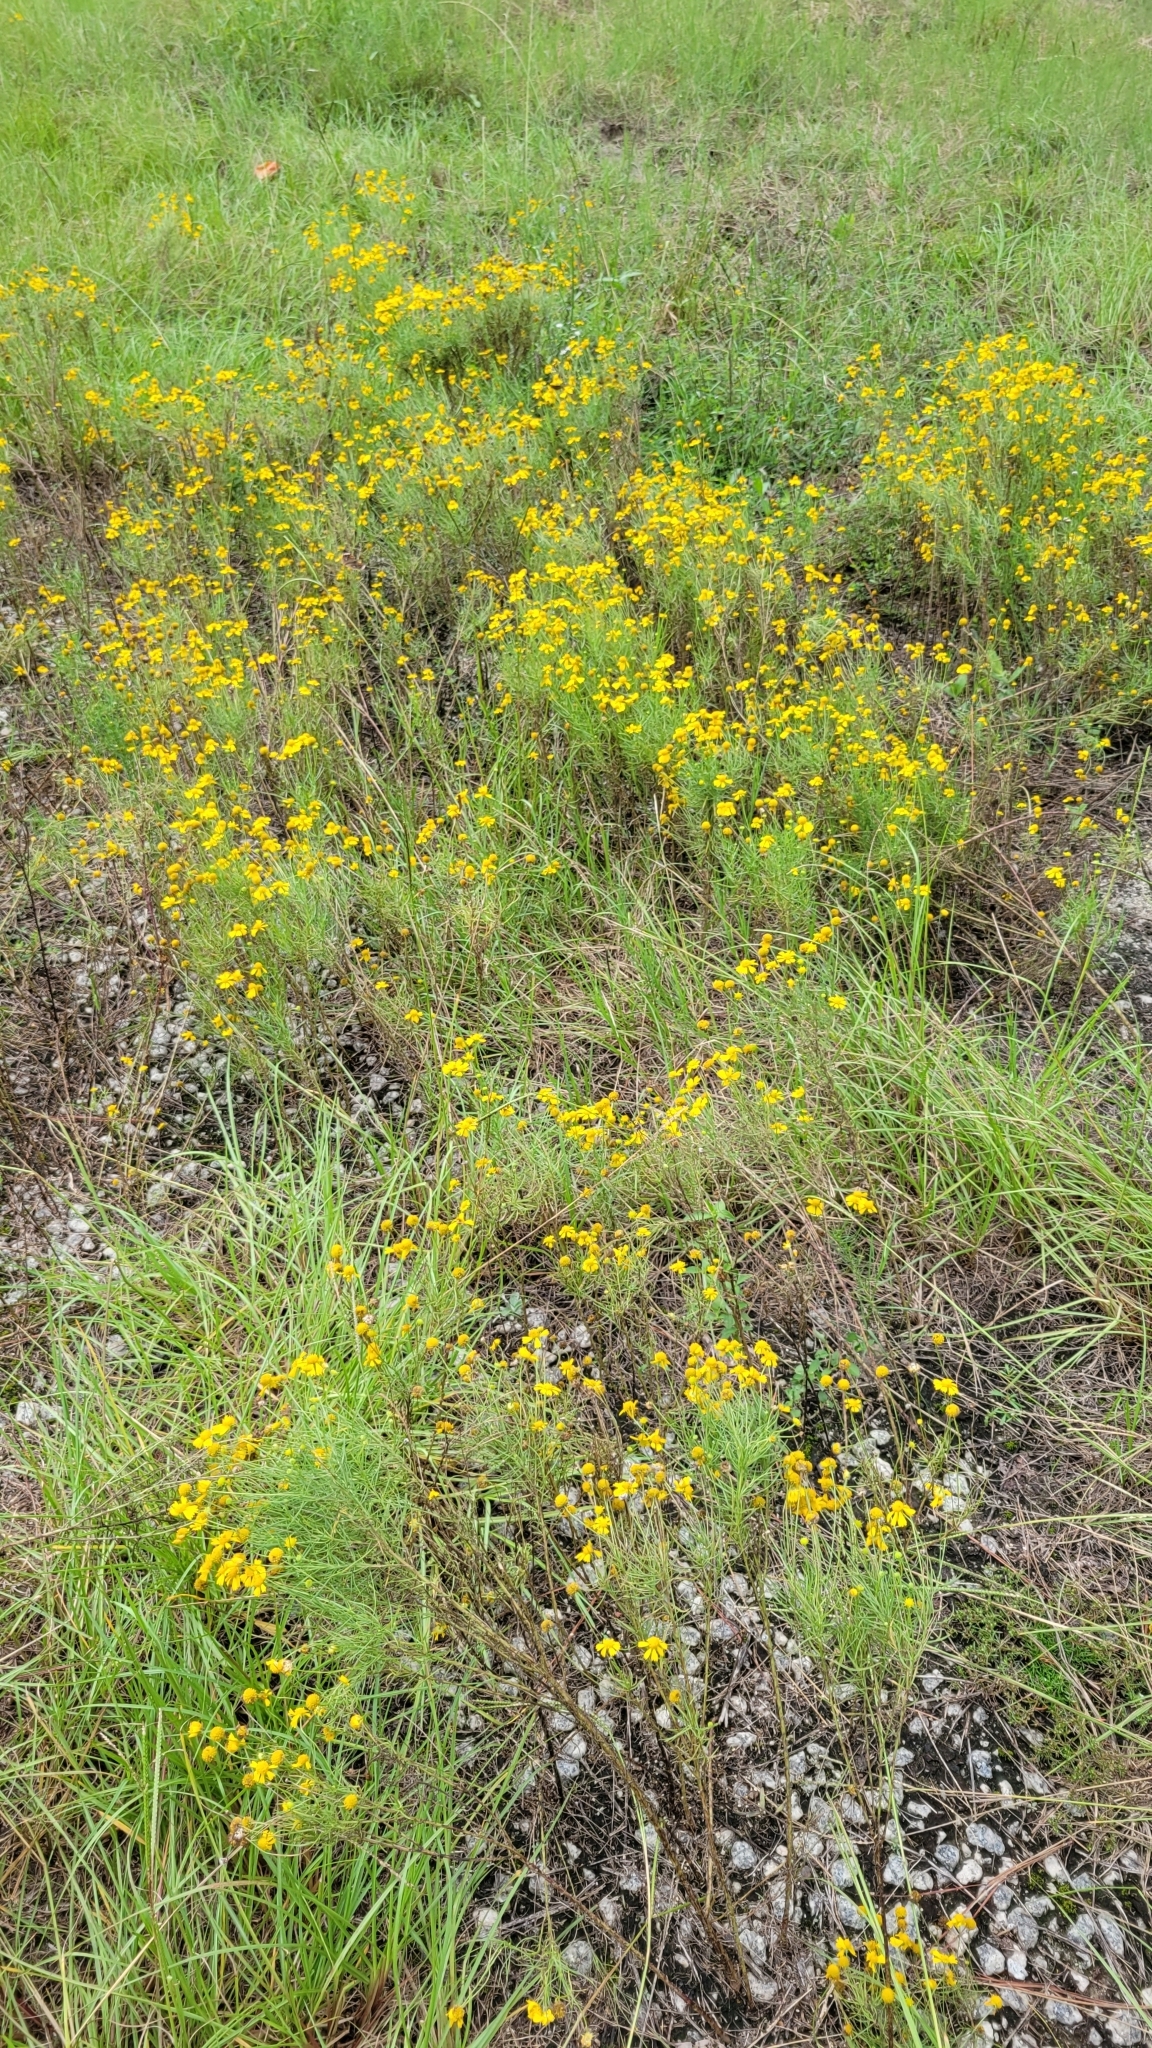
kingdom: Plantae
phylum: Tracheophyta
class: Magnoliopsida
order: Asterales
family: Asteraceae
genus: Helenium
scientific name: Helenium amarum
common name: Bitter sneezeweed
